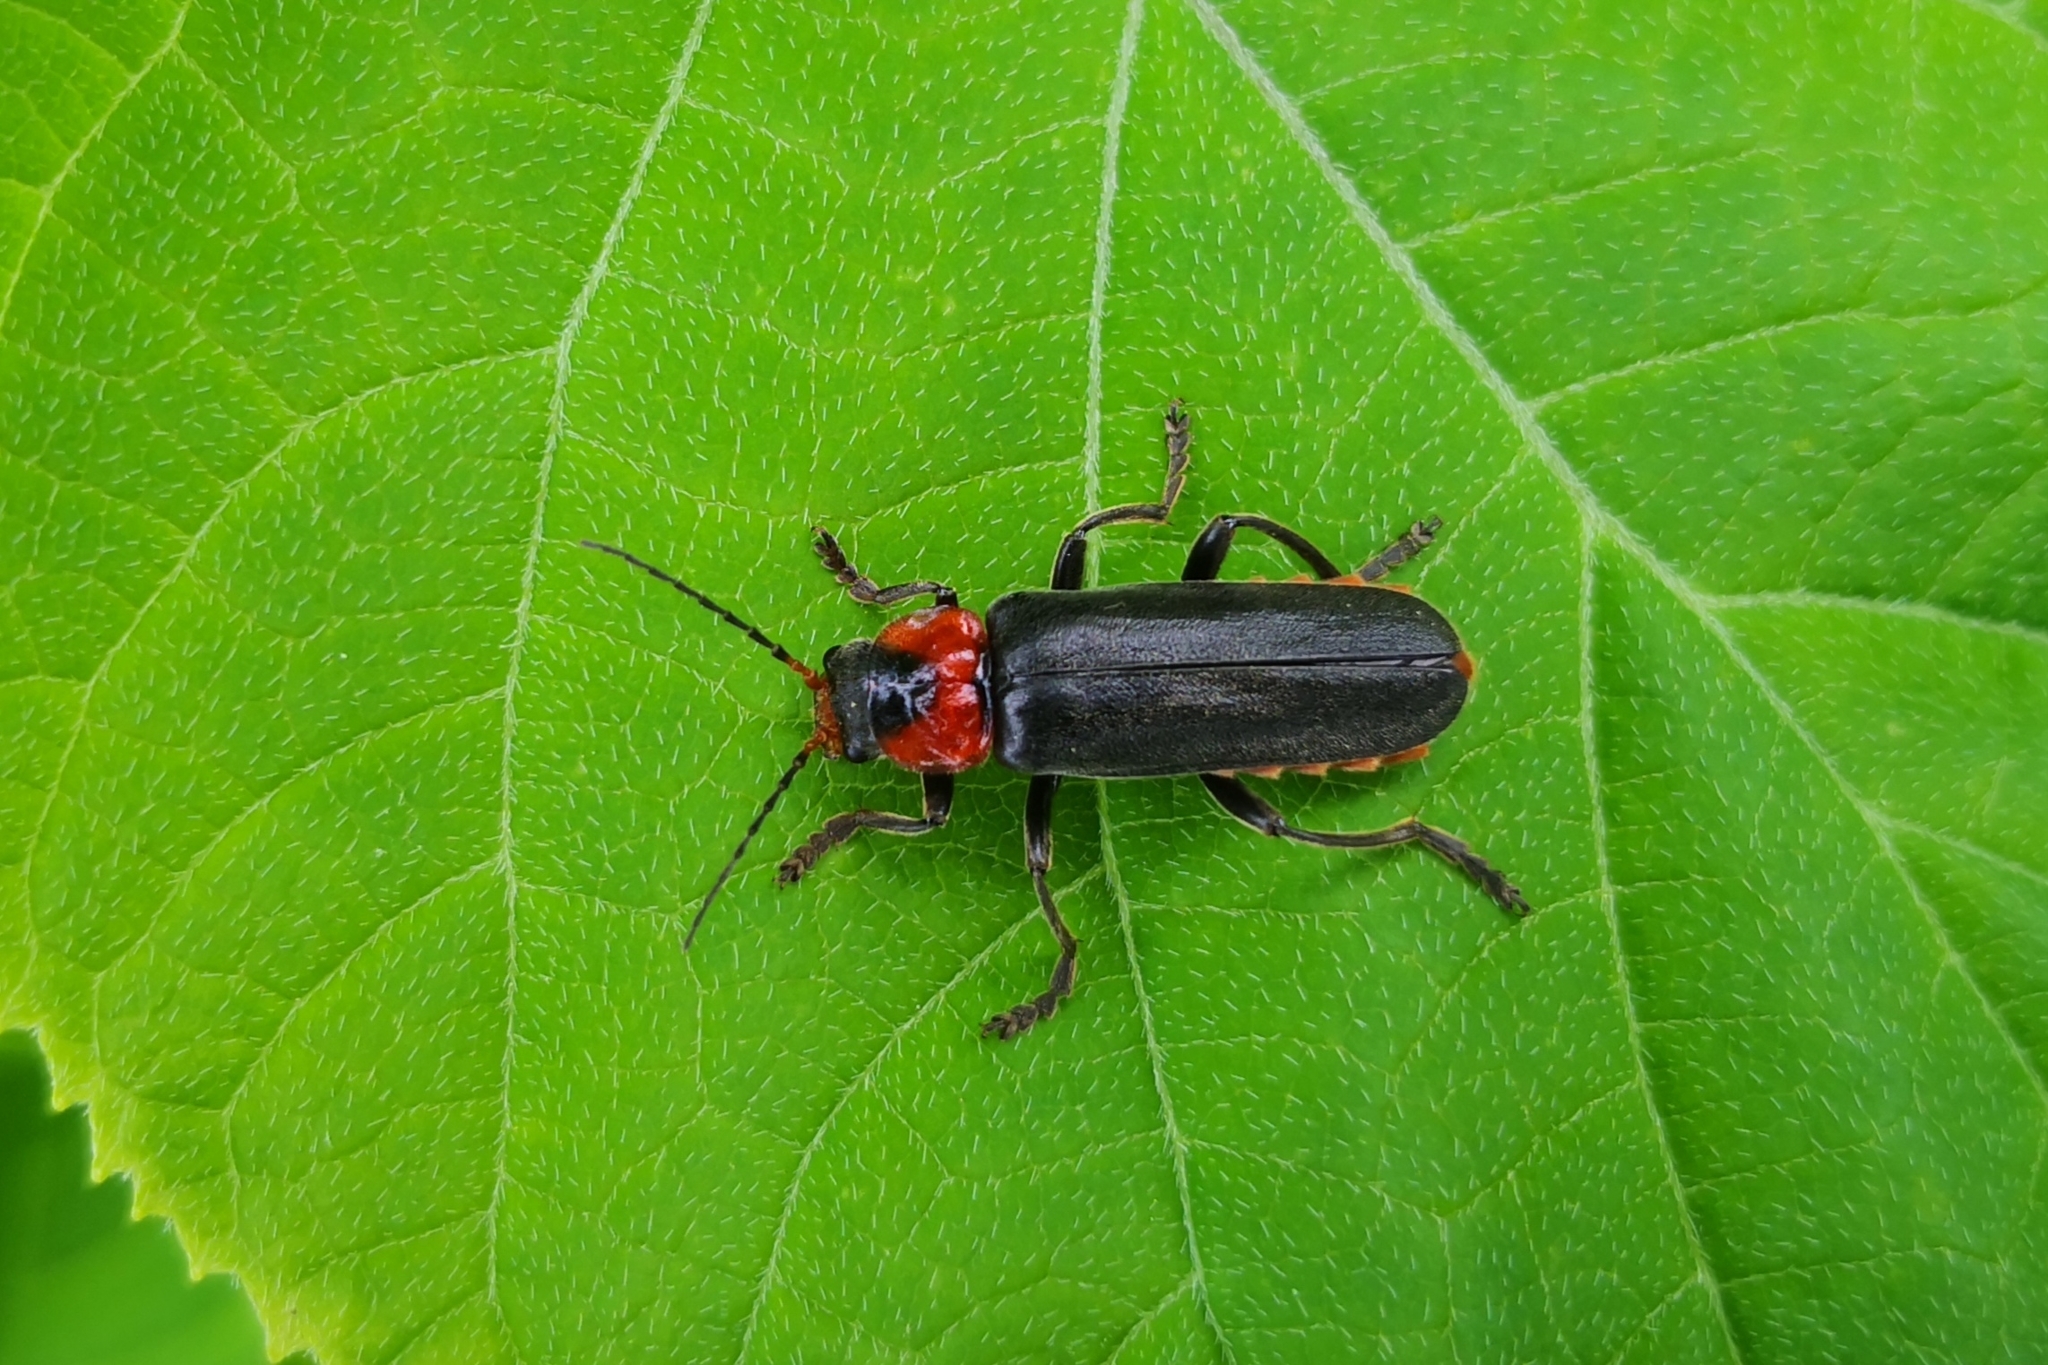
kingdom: Animalia
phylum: Arthropoda
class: Insecta
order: Coleoptera
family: Cantharidae
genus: Cantharis
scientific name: Cantharis fusca
